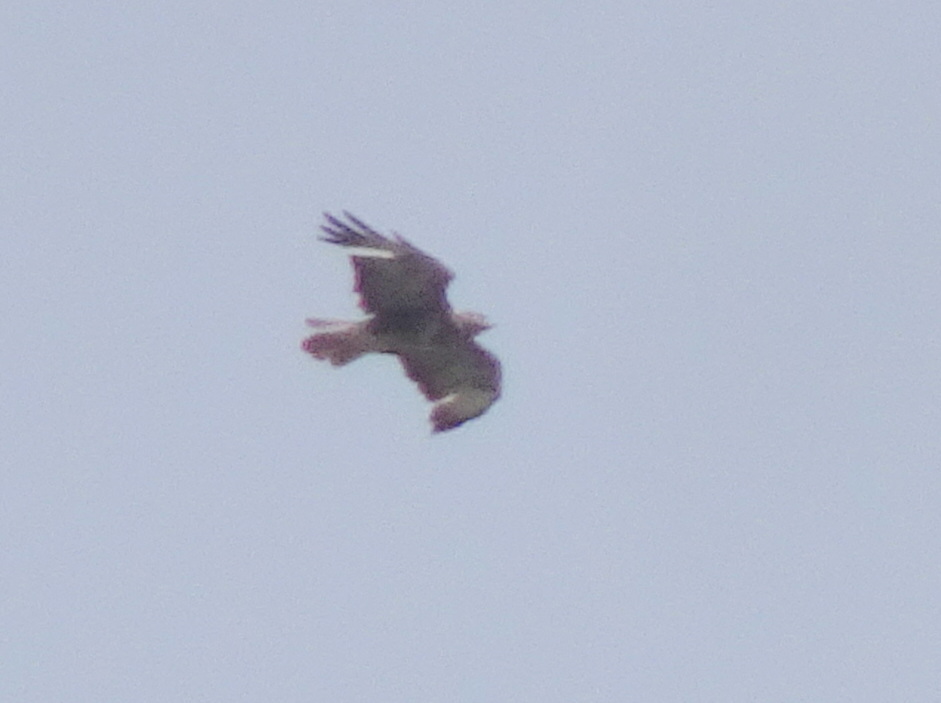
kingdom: Animalia
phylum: Chordata
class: Aves
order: Accipitriformes
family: Accipitridae
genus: Buteo
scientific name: Buteo buteo
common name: Common buzzard
